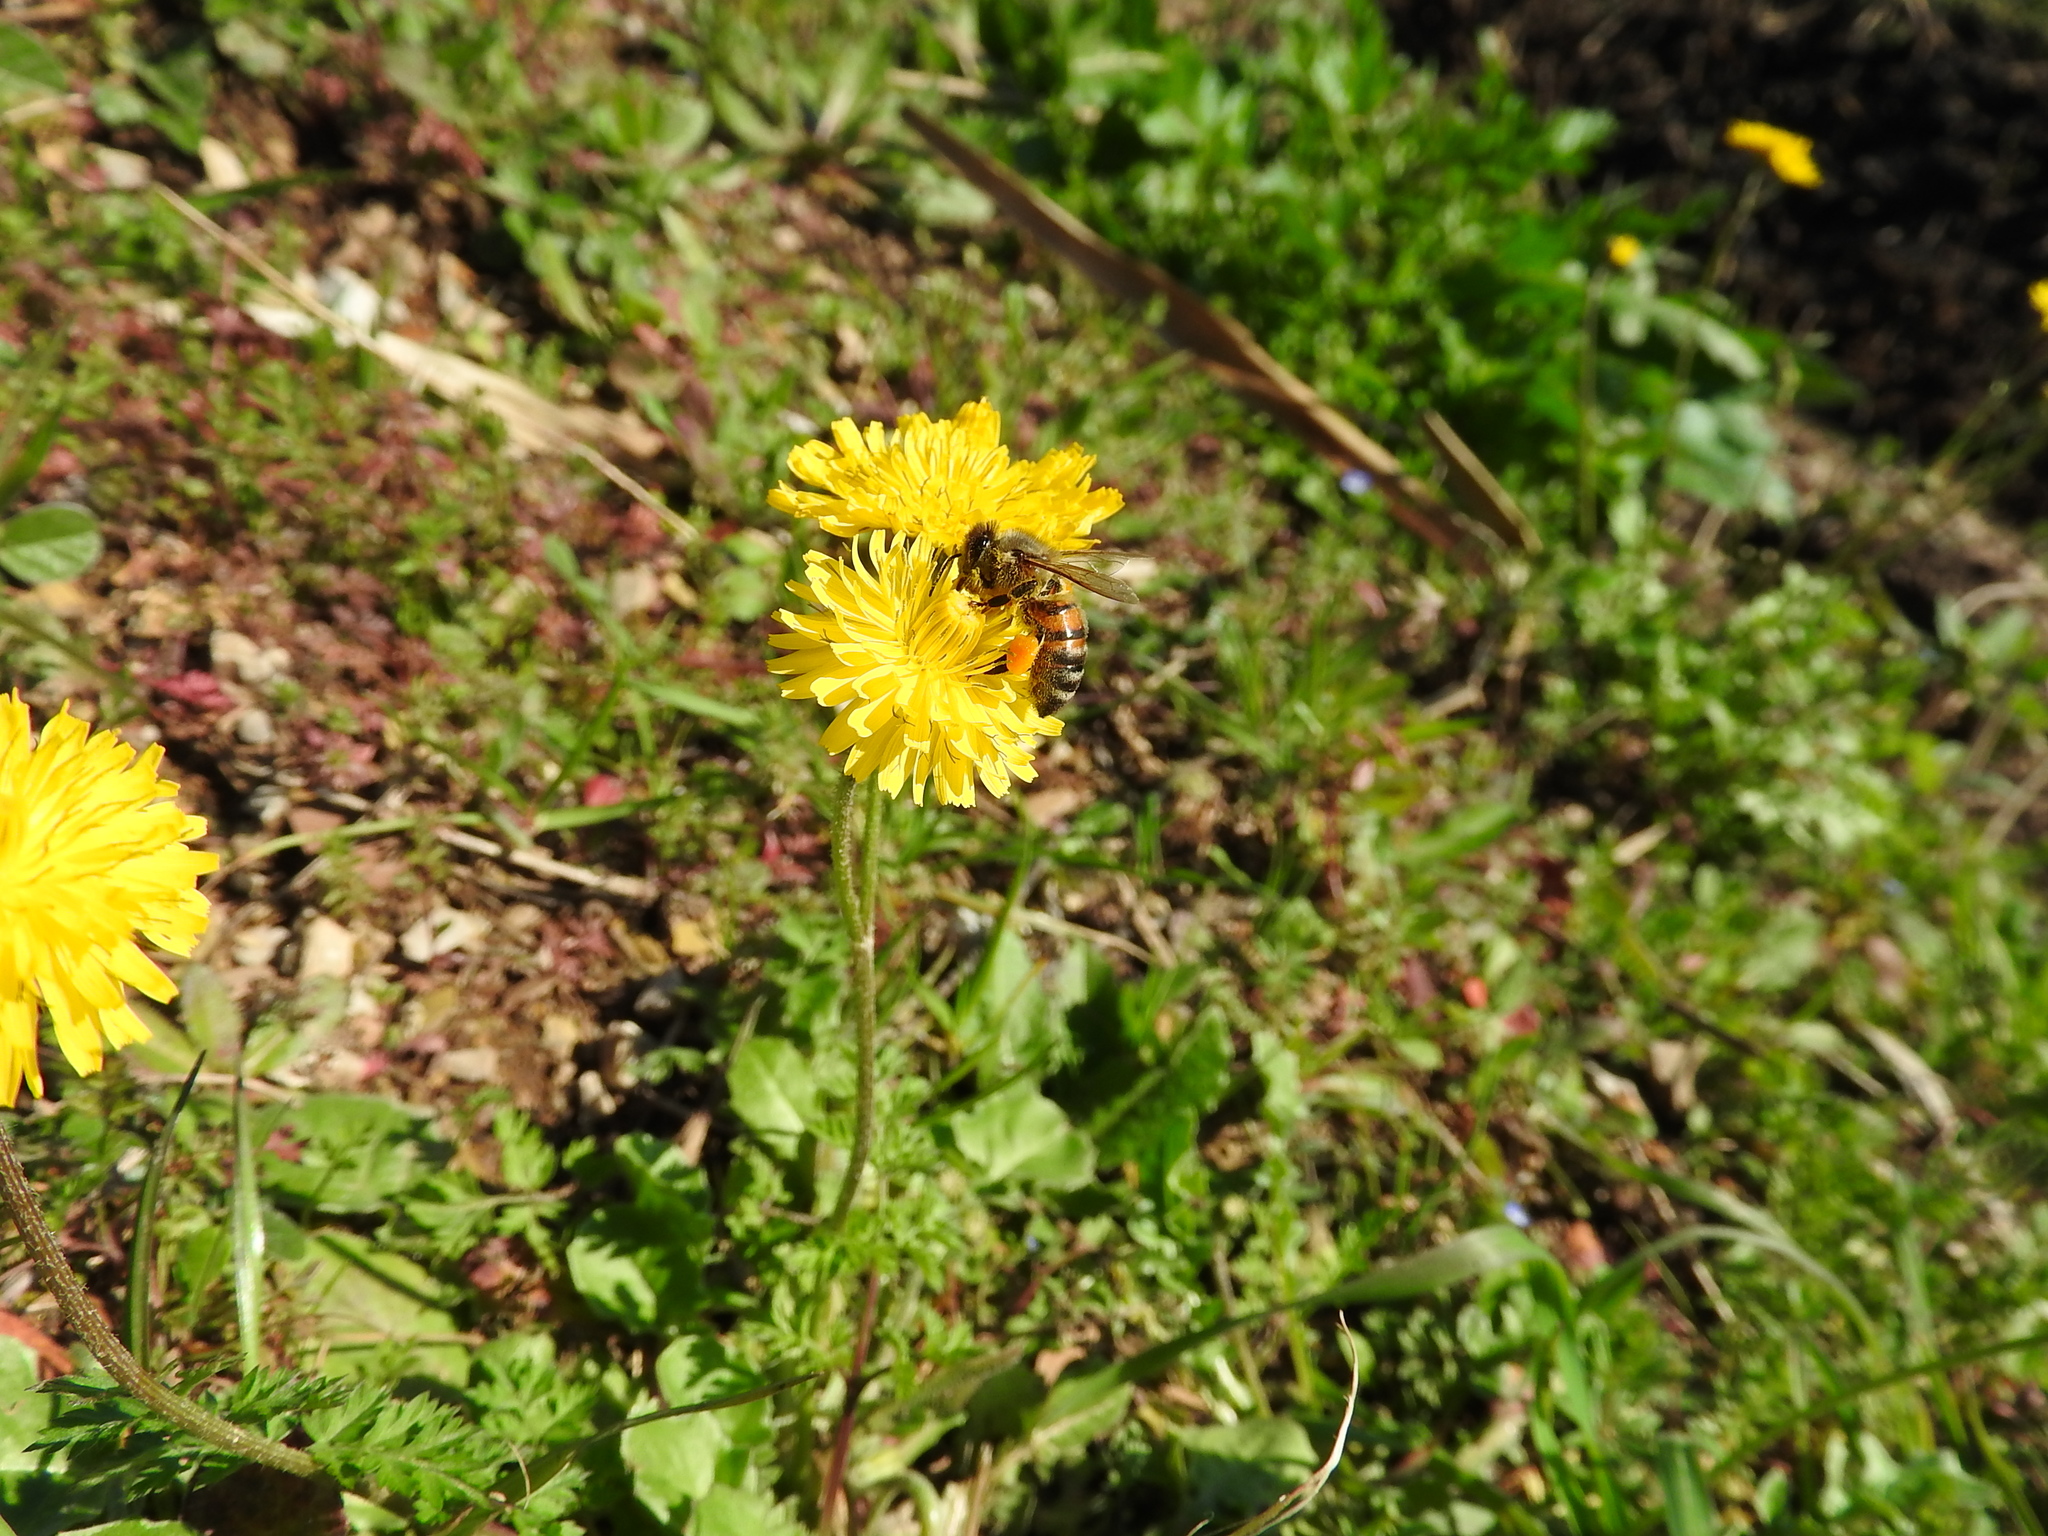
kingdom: Animalia
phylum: Arthropoda
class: Insecta
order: Hymenoptera
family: Apidae
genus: Apis
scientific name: Apis mellifera
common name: Honey bee
